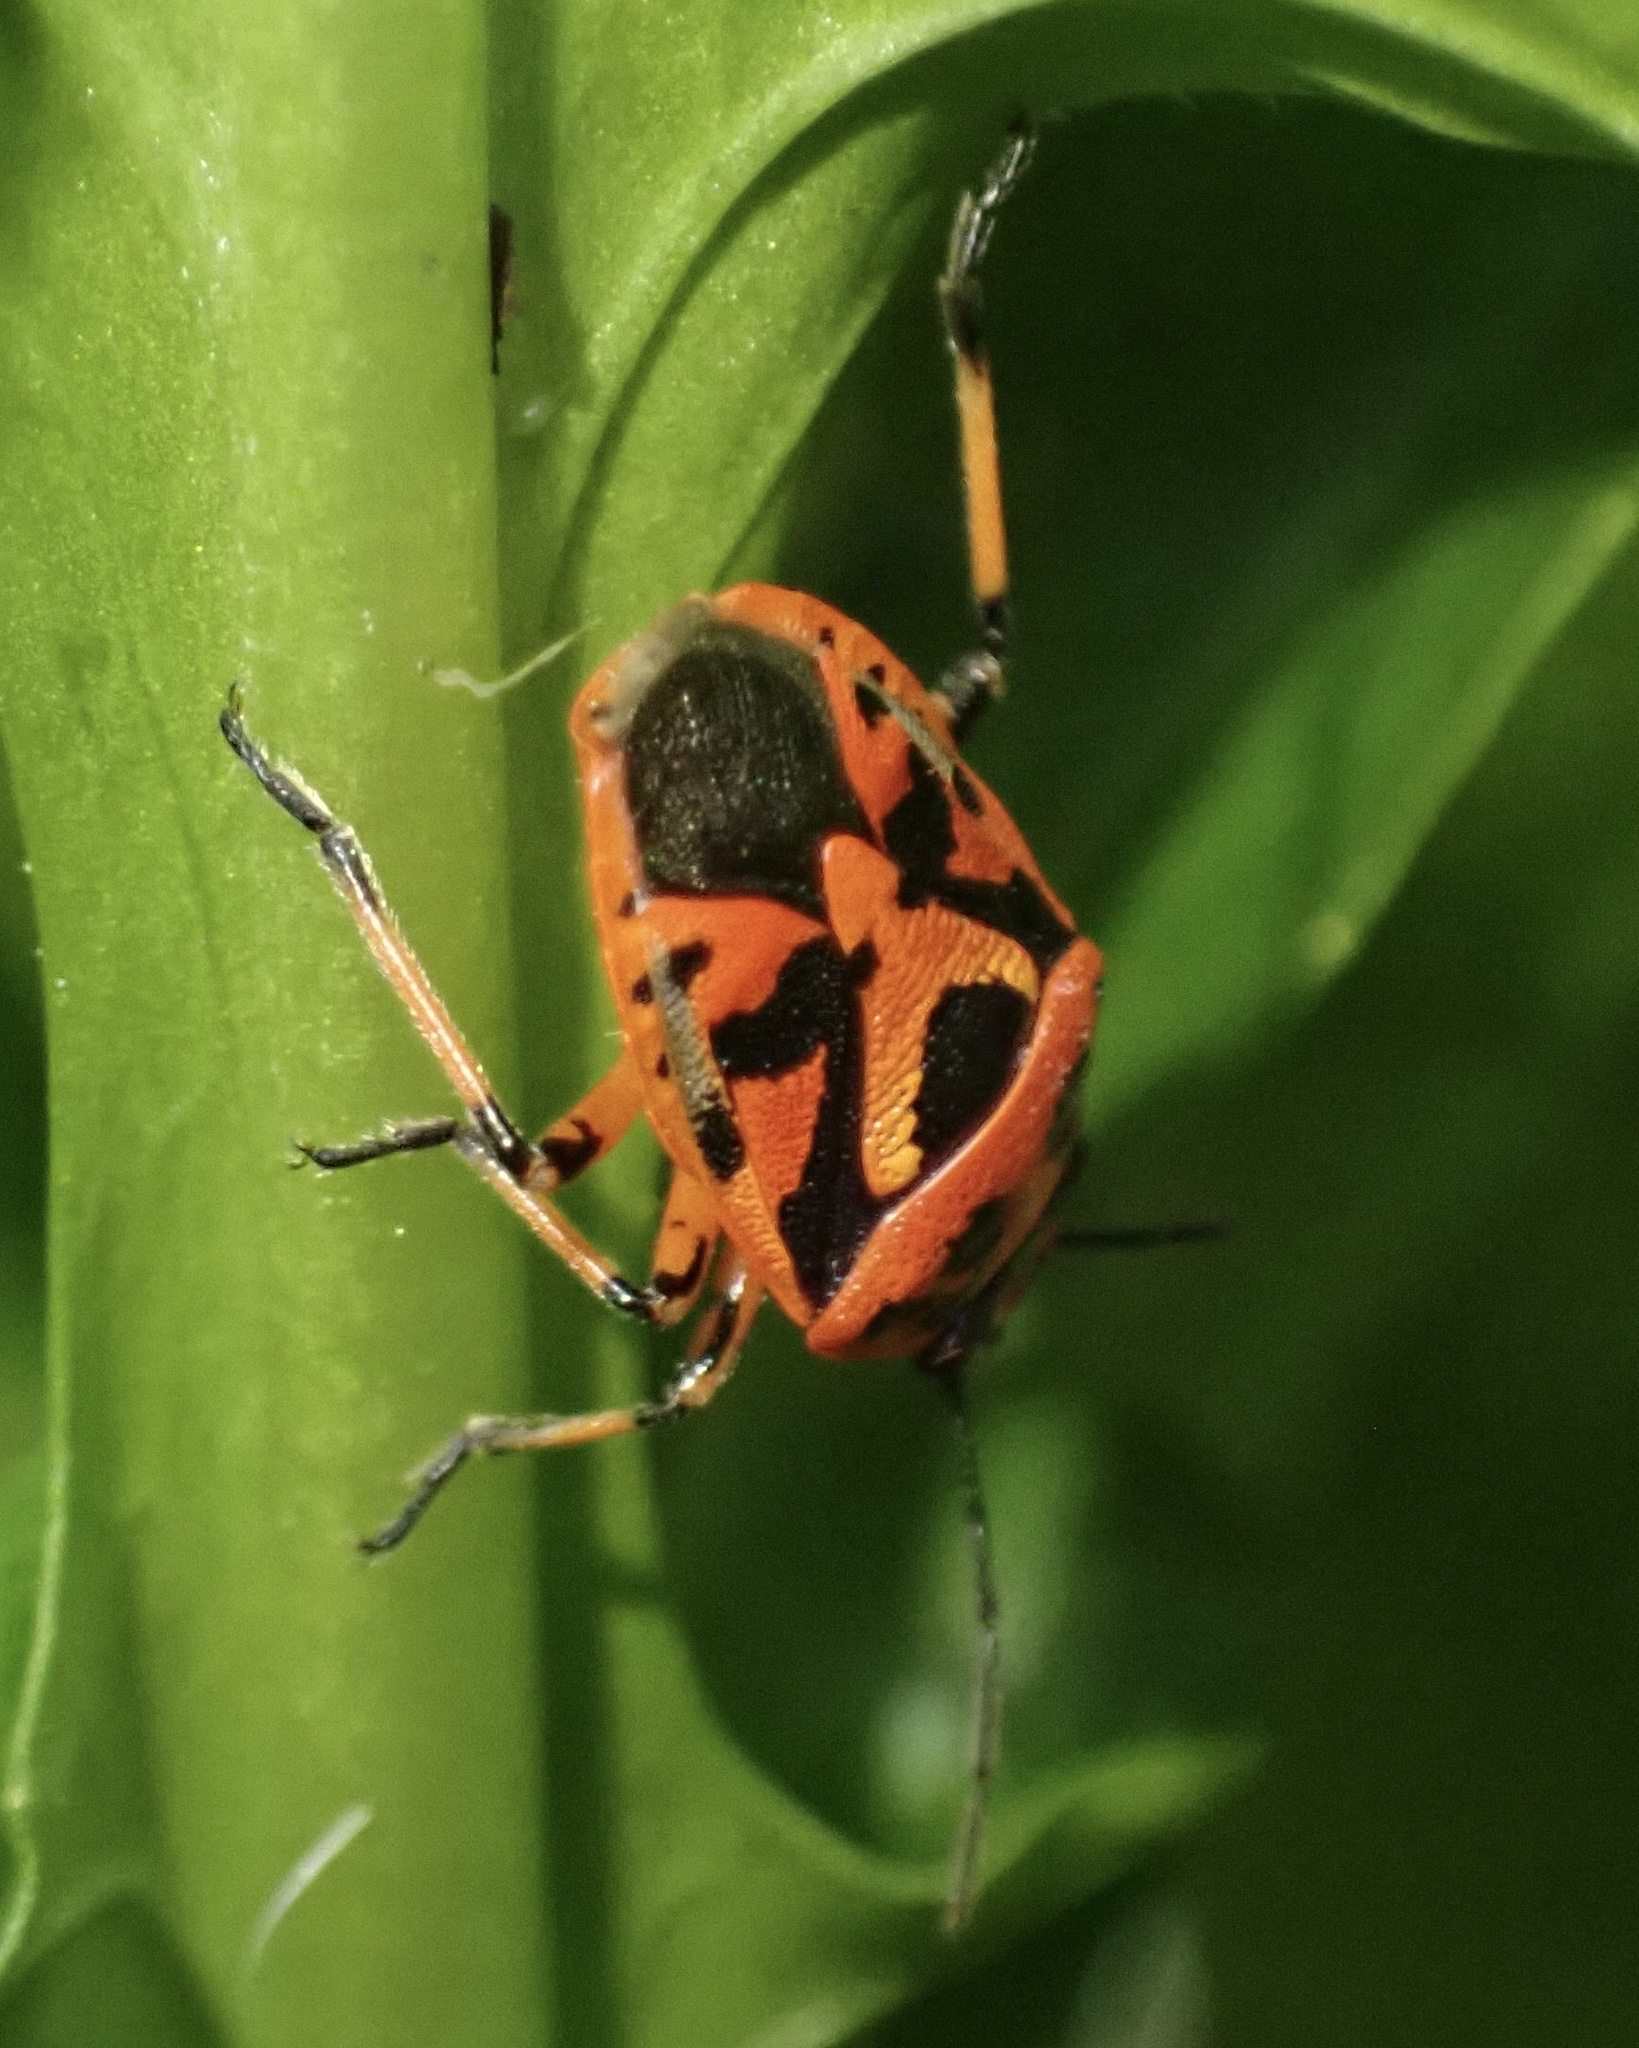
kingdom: Animalia
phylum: Arthropoda
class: Insecta
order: Hemiptera
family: Pentatomidae
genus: Eurydema
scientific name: Eurydema ornata
